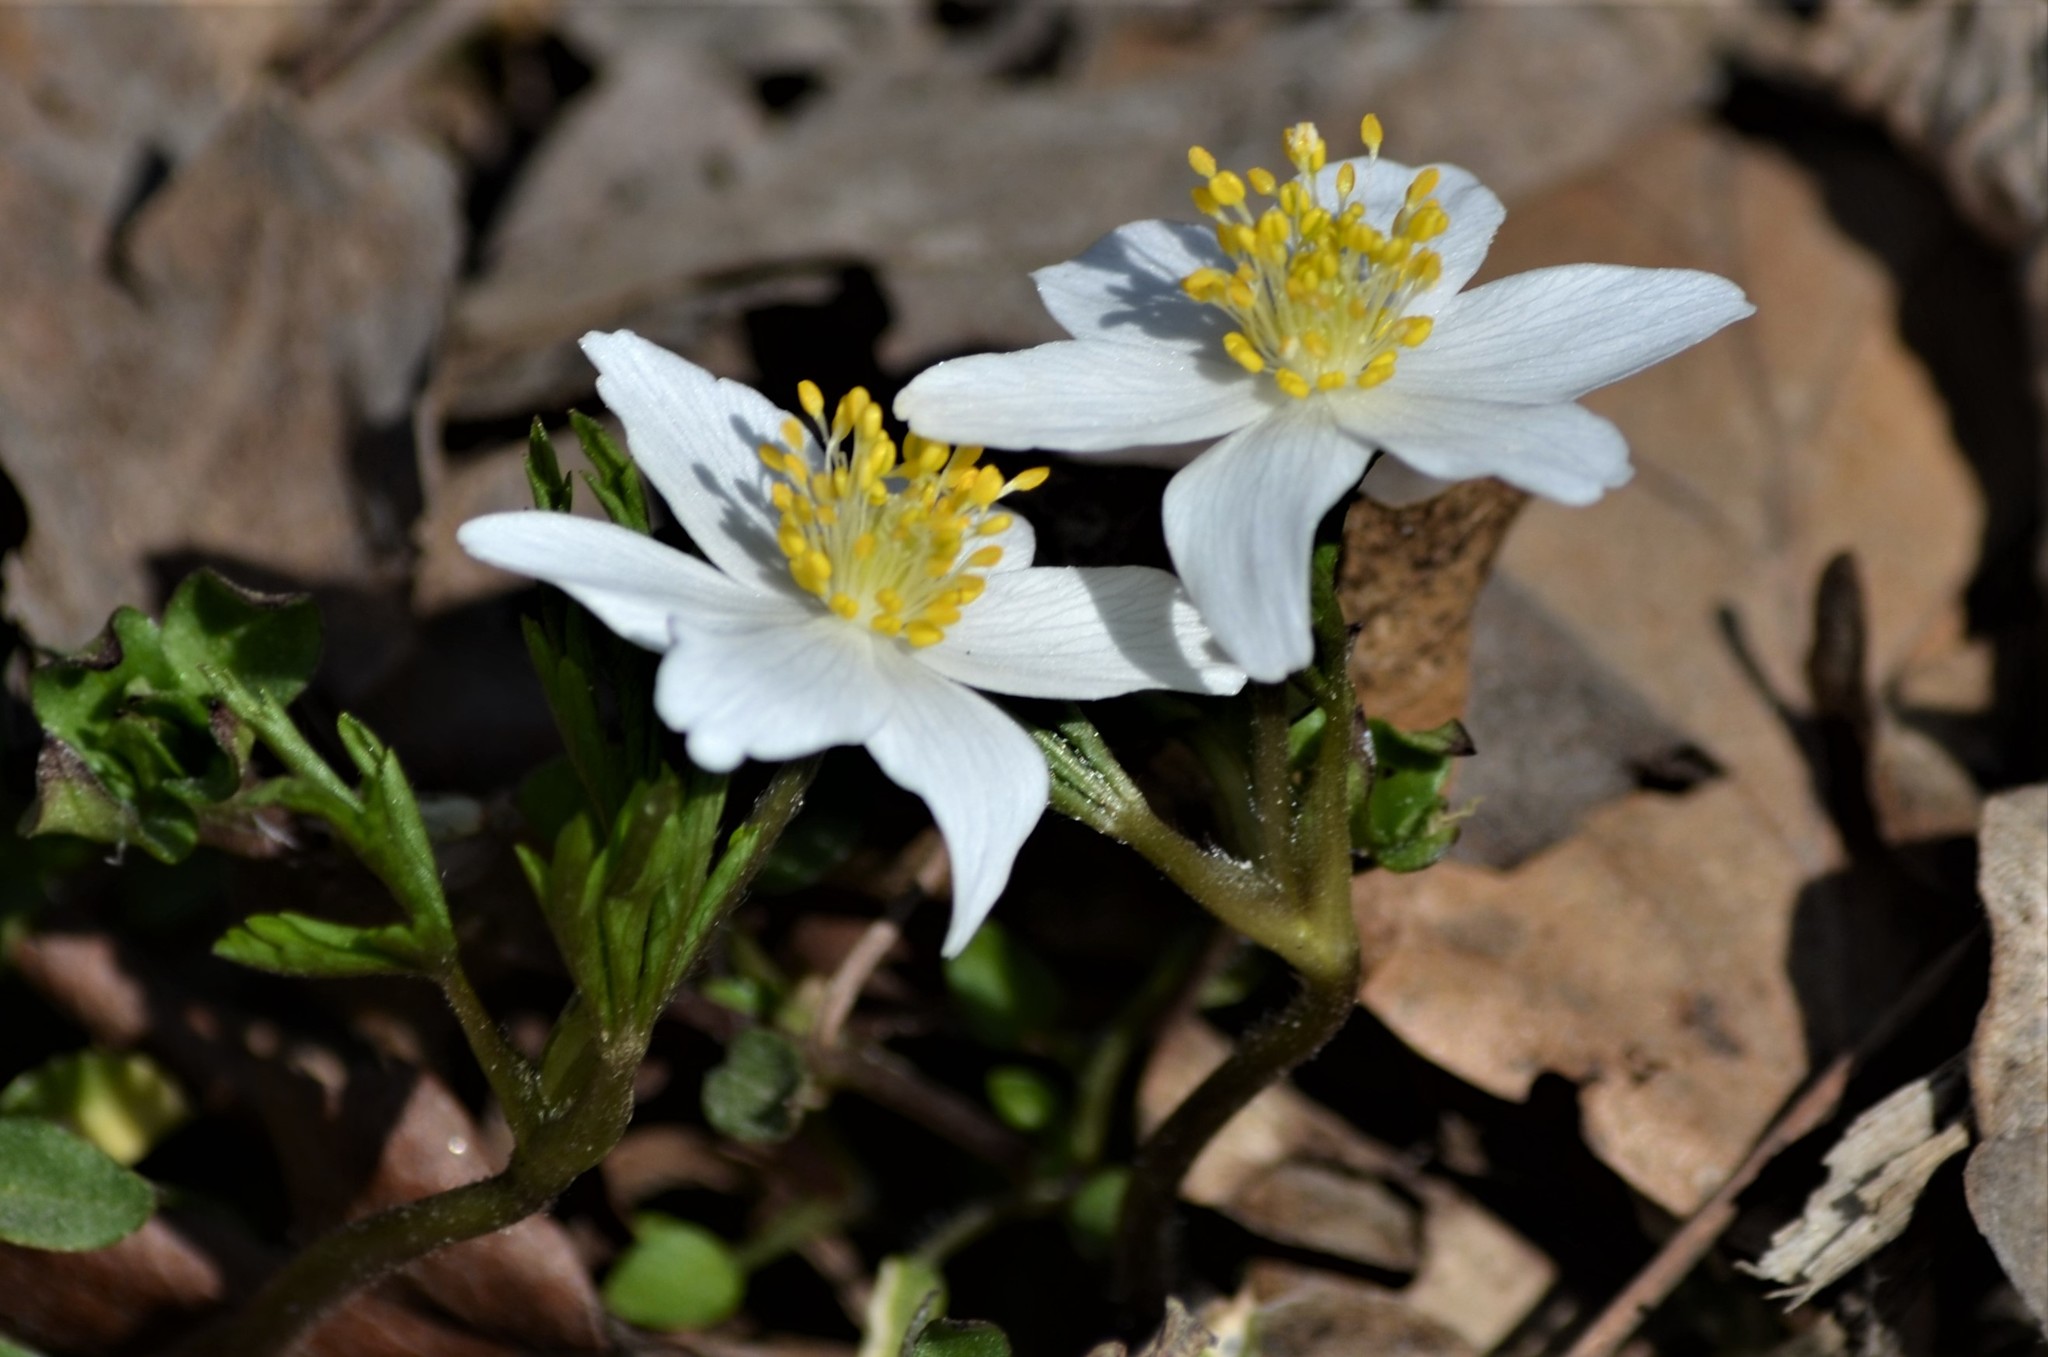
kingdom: Plantae
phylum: Tracheophyta
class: Magnoliopsida
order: Ranunculales
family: Ranunculaceae
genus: Anemone
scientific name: Anemone nemorosa
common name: Wood anemone
